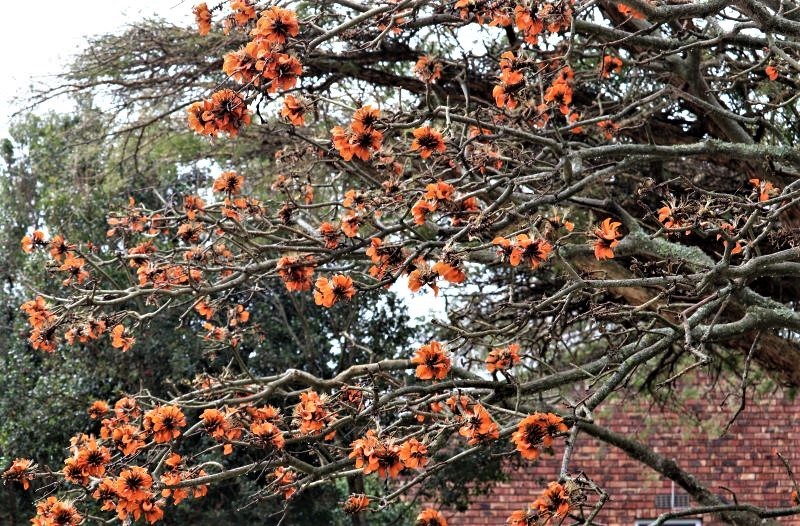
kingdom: Plantae
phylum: Tracheophyta
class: Magnoliopsida
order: Fabales
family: Fabaceae
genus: Erythrina
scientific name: Erythrina caffra
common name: Coast coral tree
